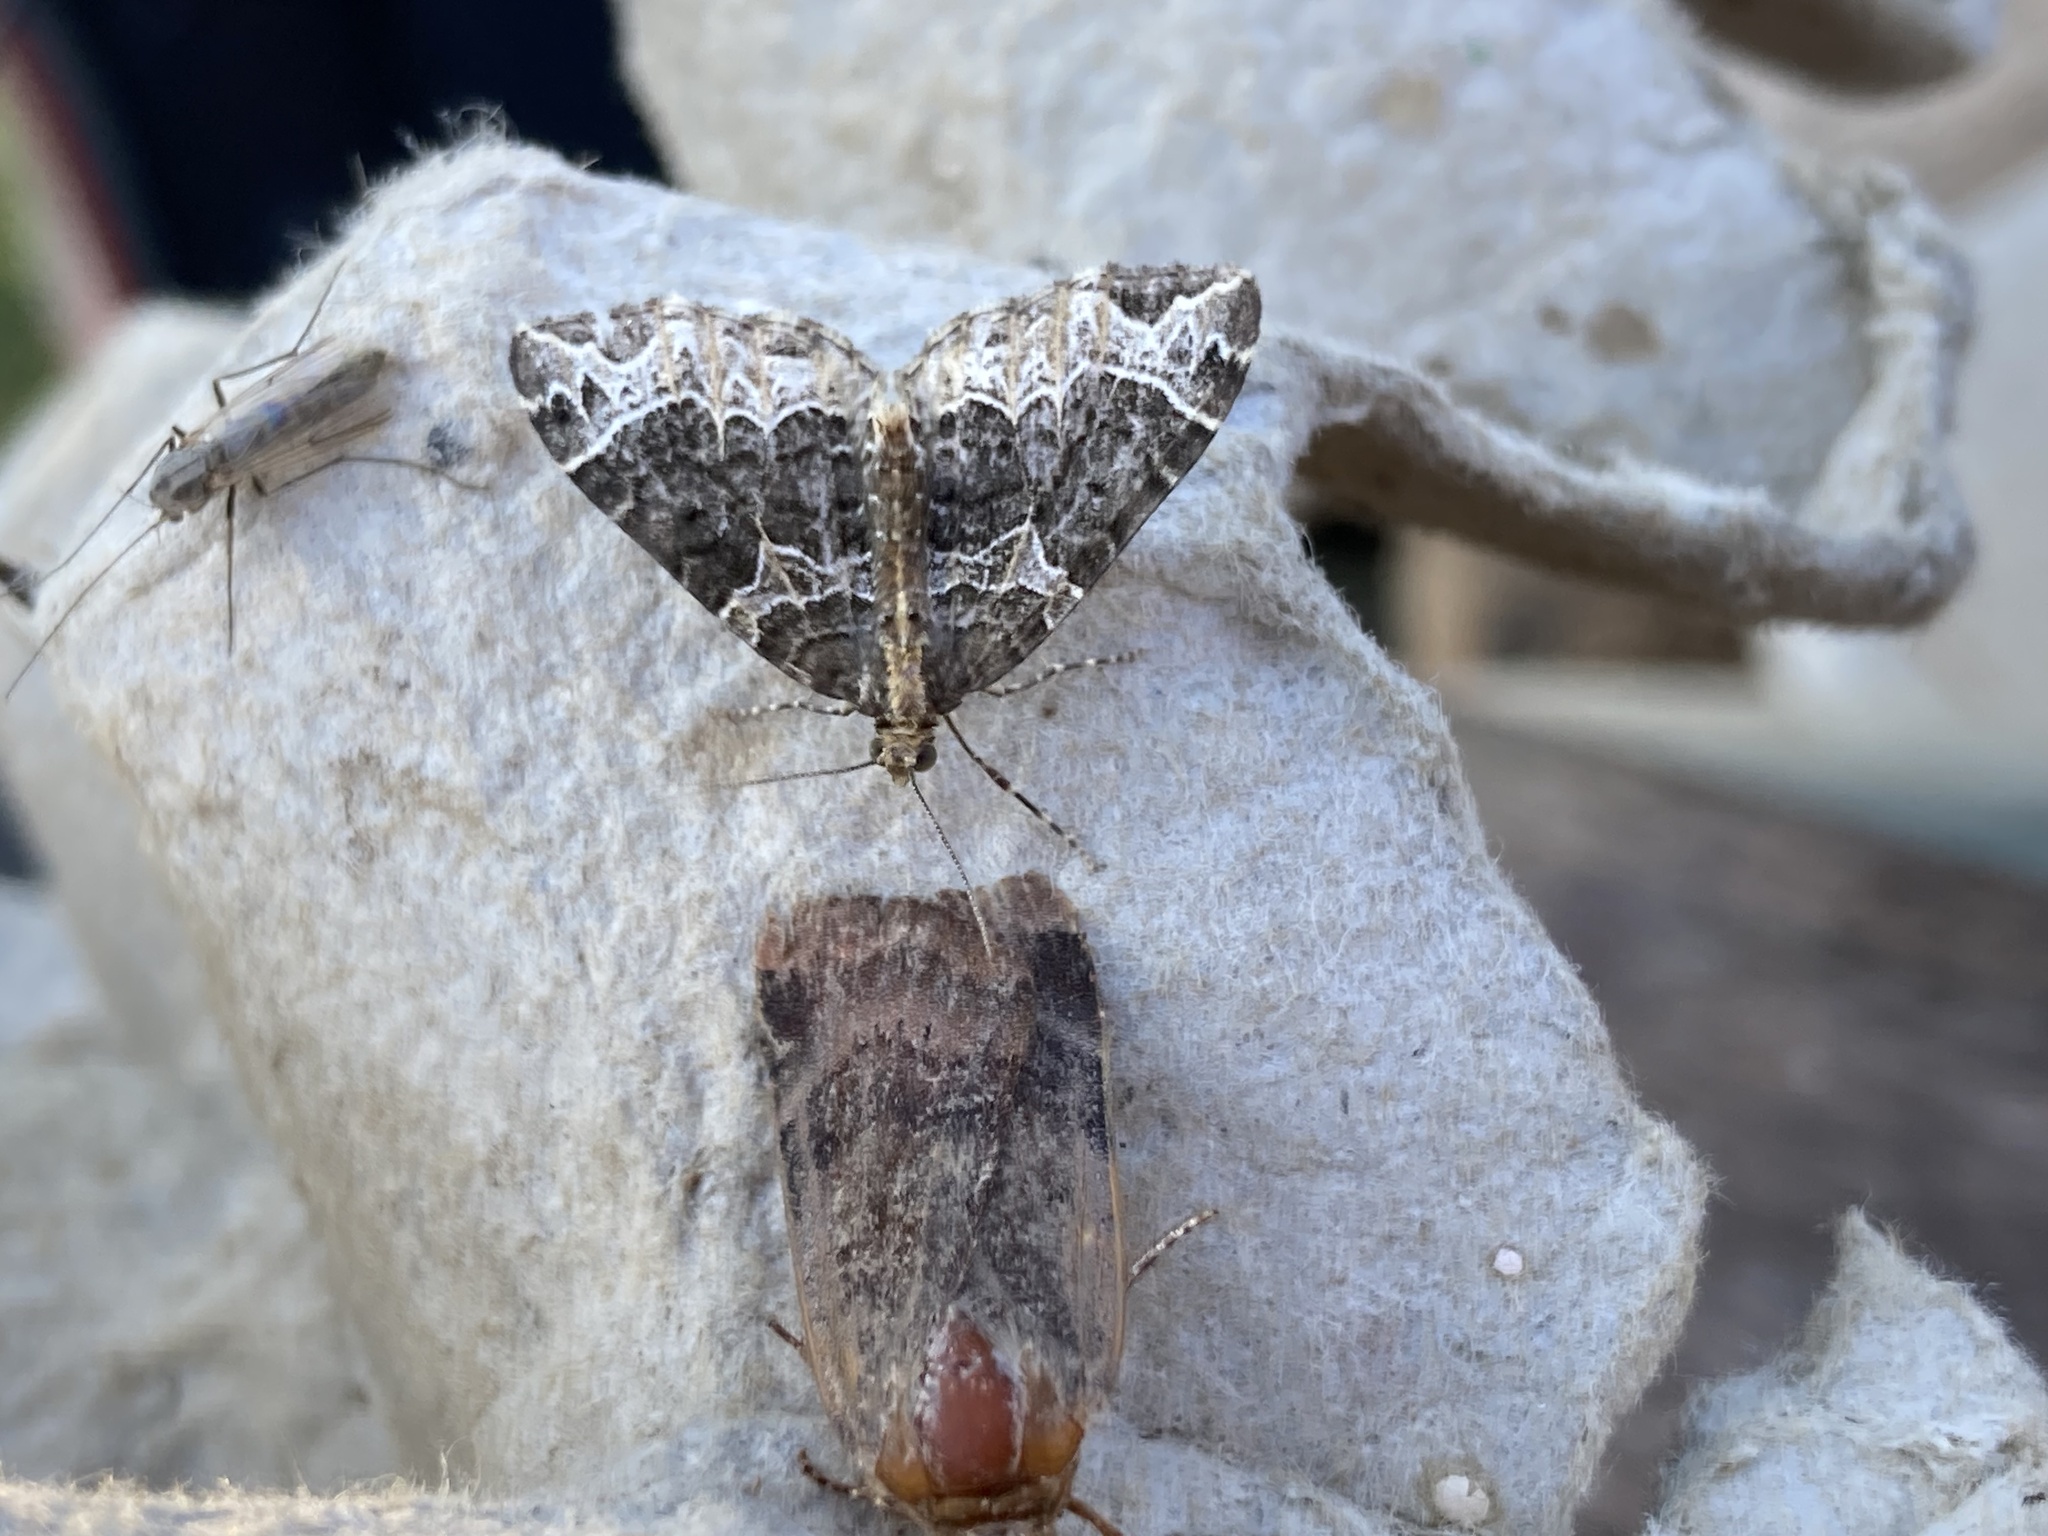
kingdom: Animalia
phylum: Arthropoda
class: Insecta
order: Lepidoptera
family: Geometridae
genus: Ecliptopera
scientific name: Ecliptopera silaceata
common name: Small phoenix
